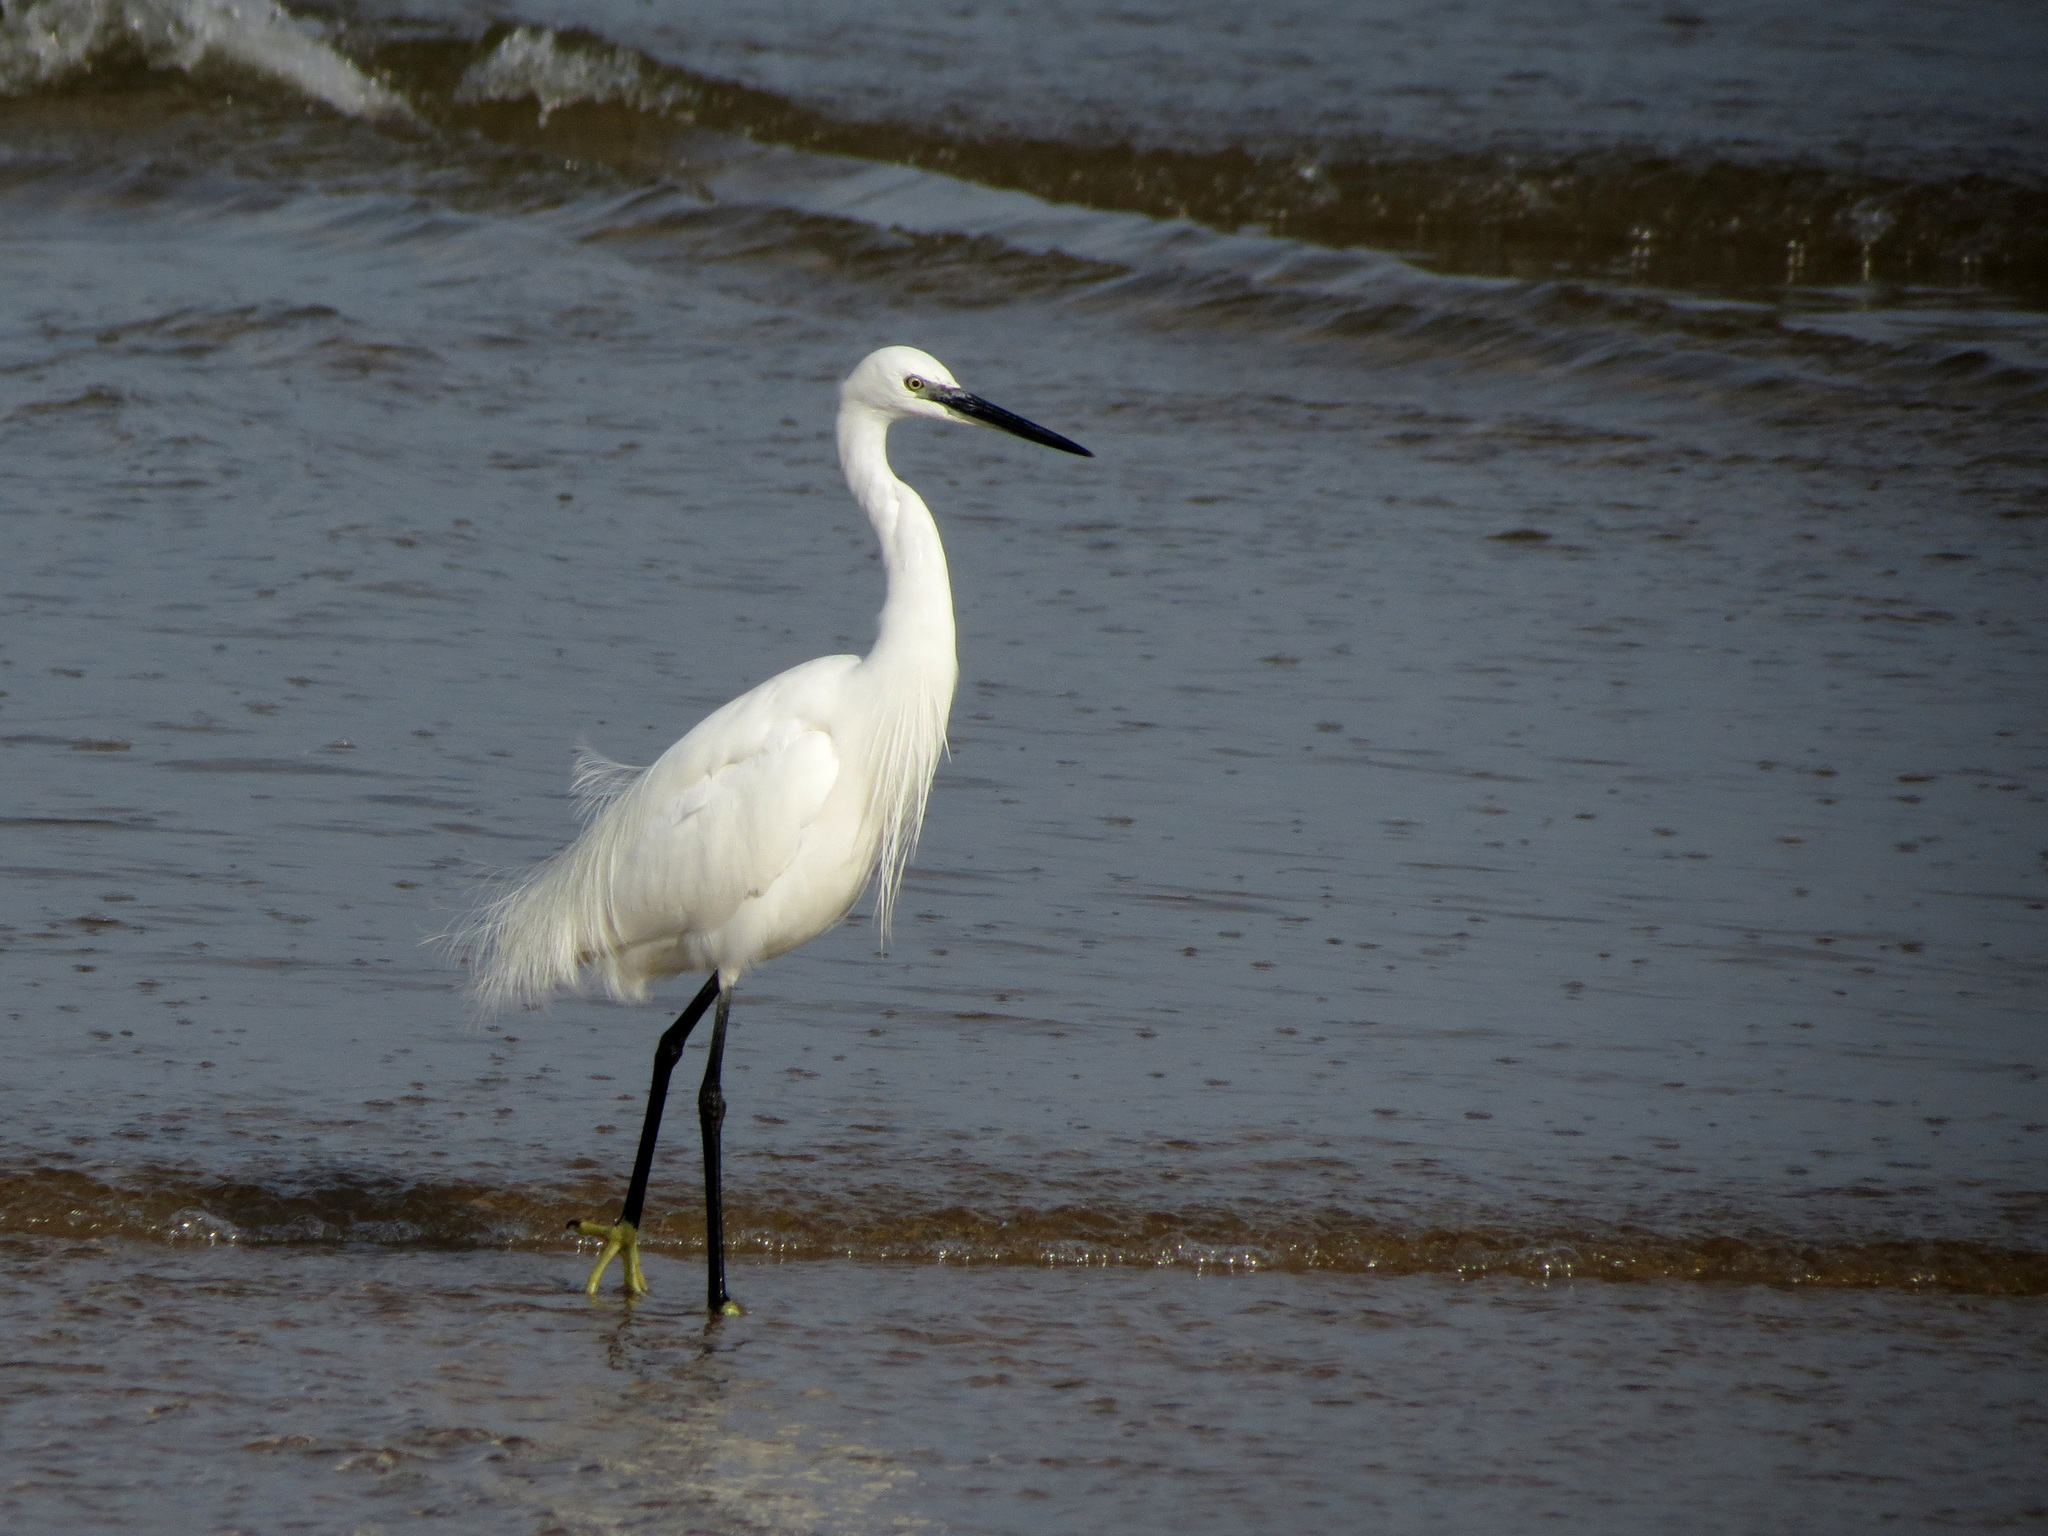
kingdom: Animalia
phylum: Chordata
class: Aves
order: Pelecaniformes
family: Ardeidae
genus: Egretta
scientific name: Egretta garzetta
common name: Little egret
